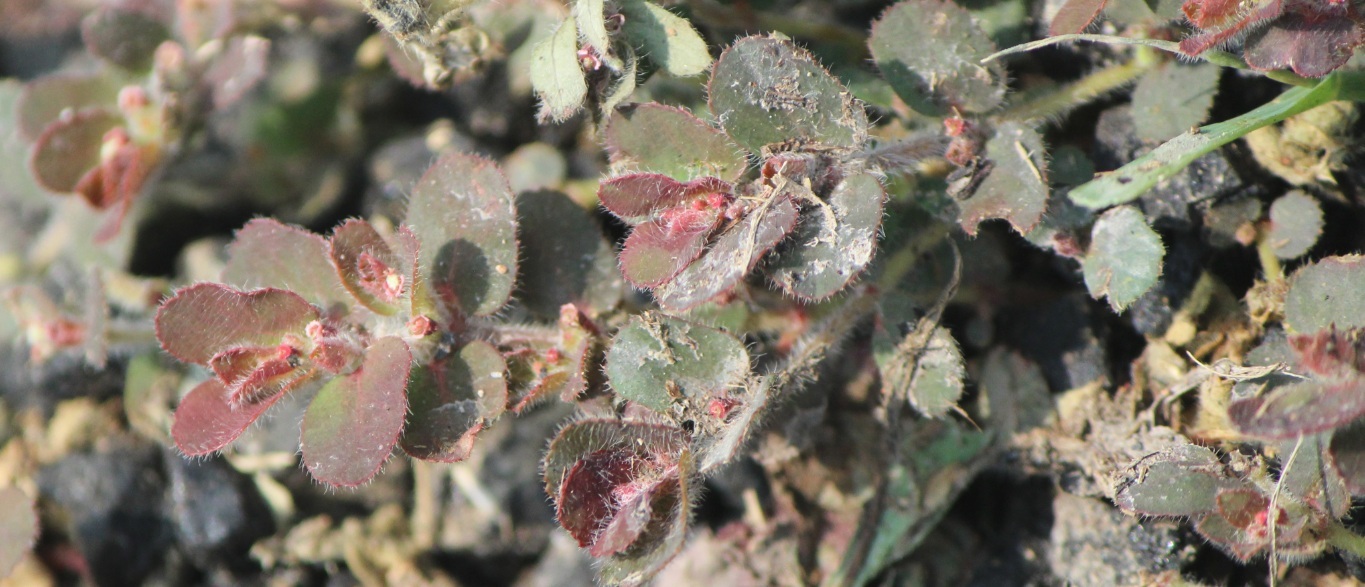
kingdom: Plantae
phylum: Tracheophyta
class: Magnoliopsida
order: Malpighiales
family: Euphorbiaceae
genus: Euphorbia
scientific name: Euphorbia velleriflora
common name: Caliche sandmat
